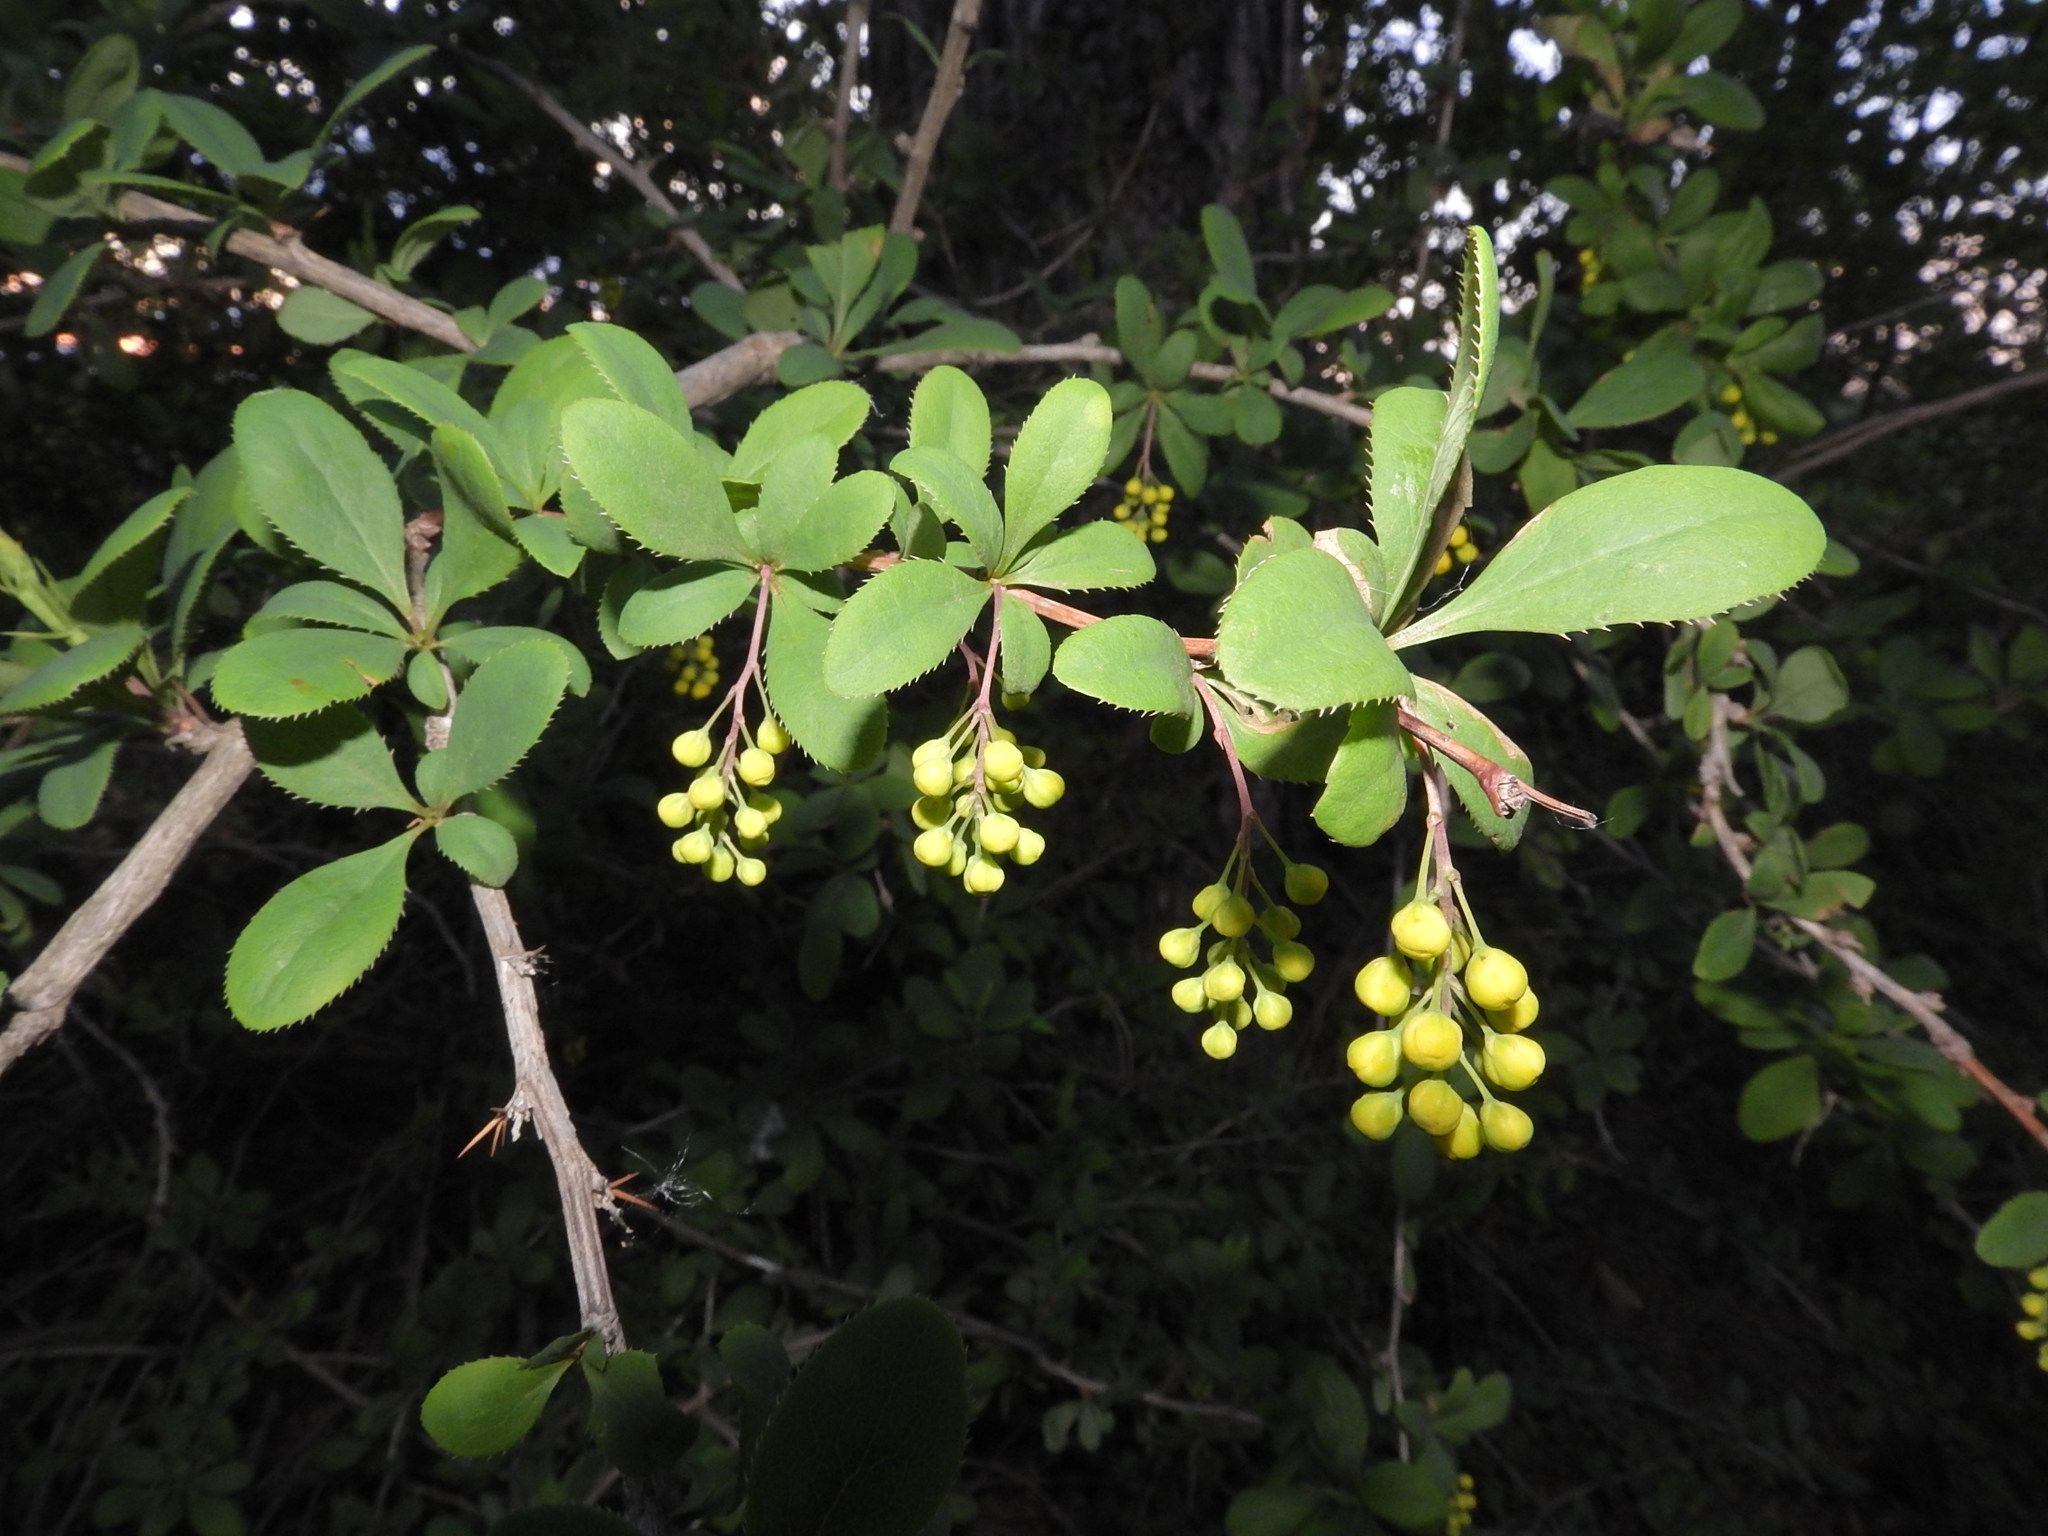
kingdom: Plantae
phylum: Tracheophyta
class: Magnoliopsida
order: Ranunculales
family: Berberidaceae
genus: Berberis
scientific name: Berberis vulgaris
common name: Barberry
